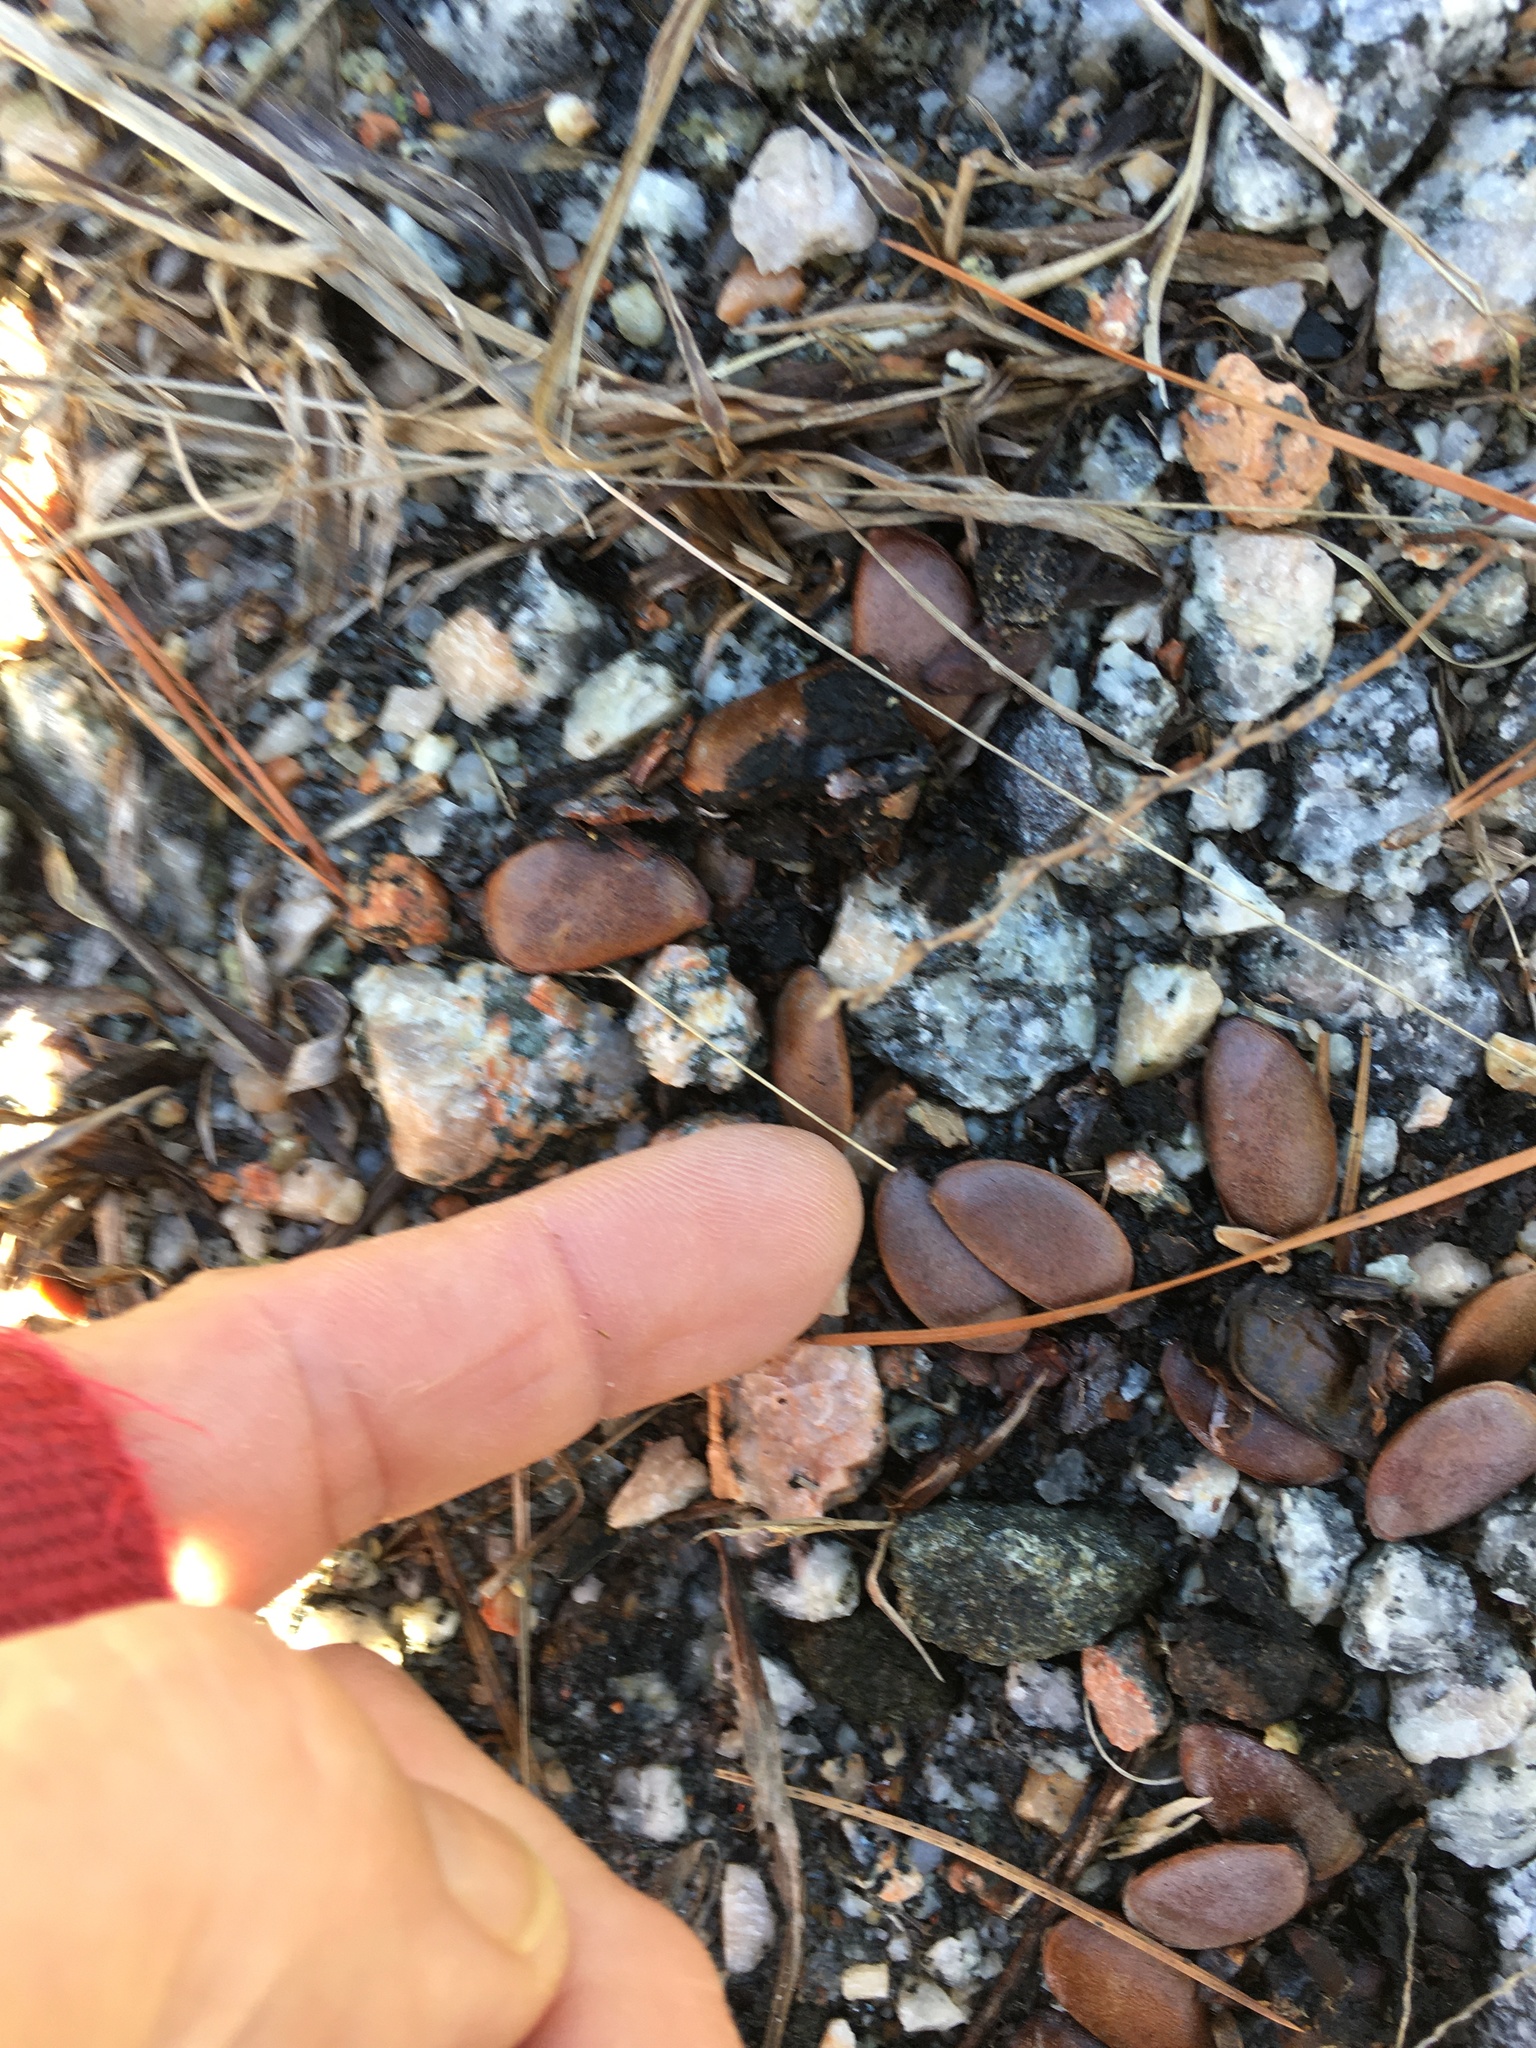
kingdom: Plantae
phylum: Tracheophyta
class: Magnoliopsida
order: Ericales
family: Ebenaceae
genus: Diospyros
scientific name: Diospyros virginiana
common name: Persimmon
